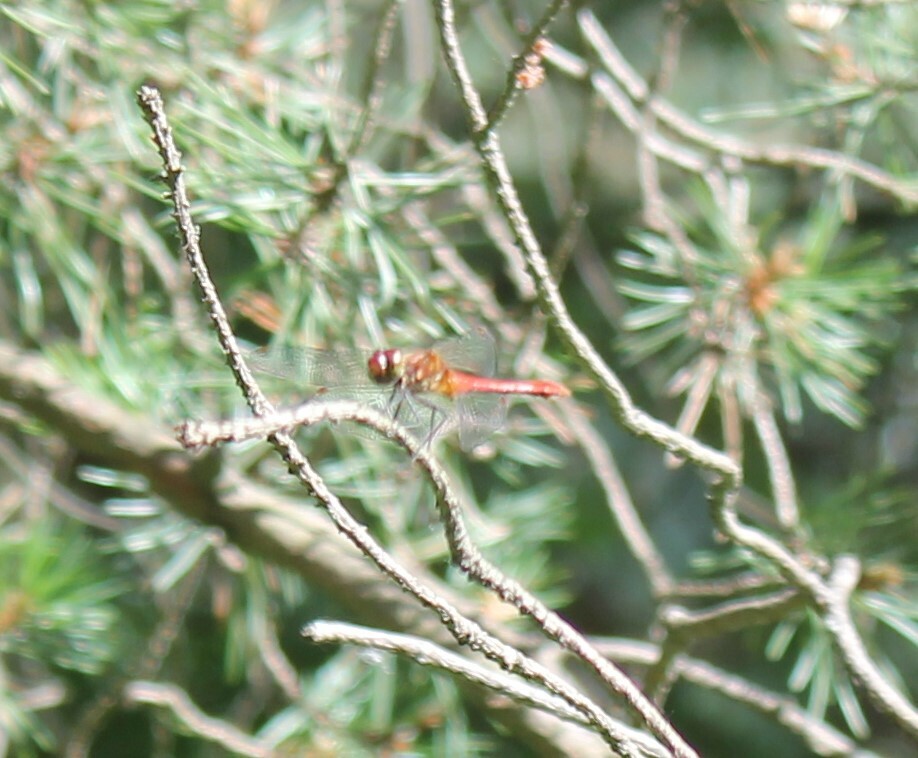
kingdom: Animalia
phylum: Arthropoda
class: Insecta
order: Odonata
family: Libellulidae
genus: Sympetrum
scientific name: Sympetrum sanguineum
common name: Ruddy darter
